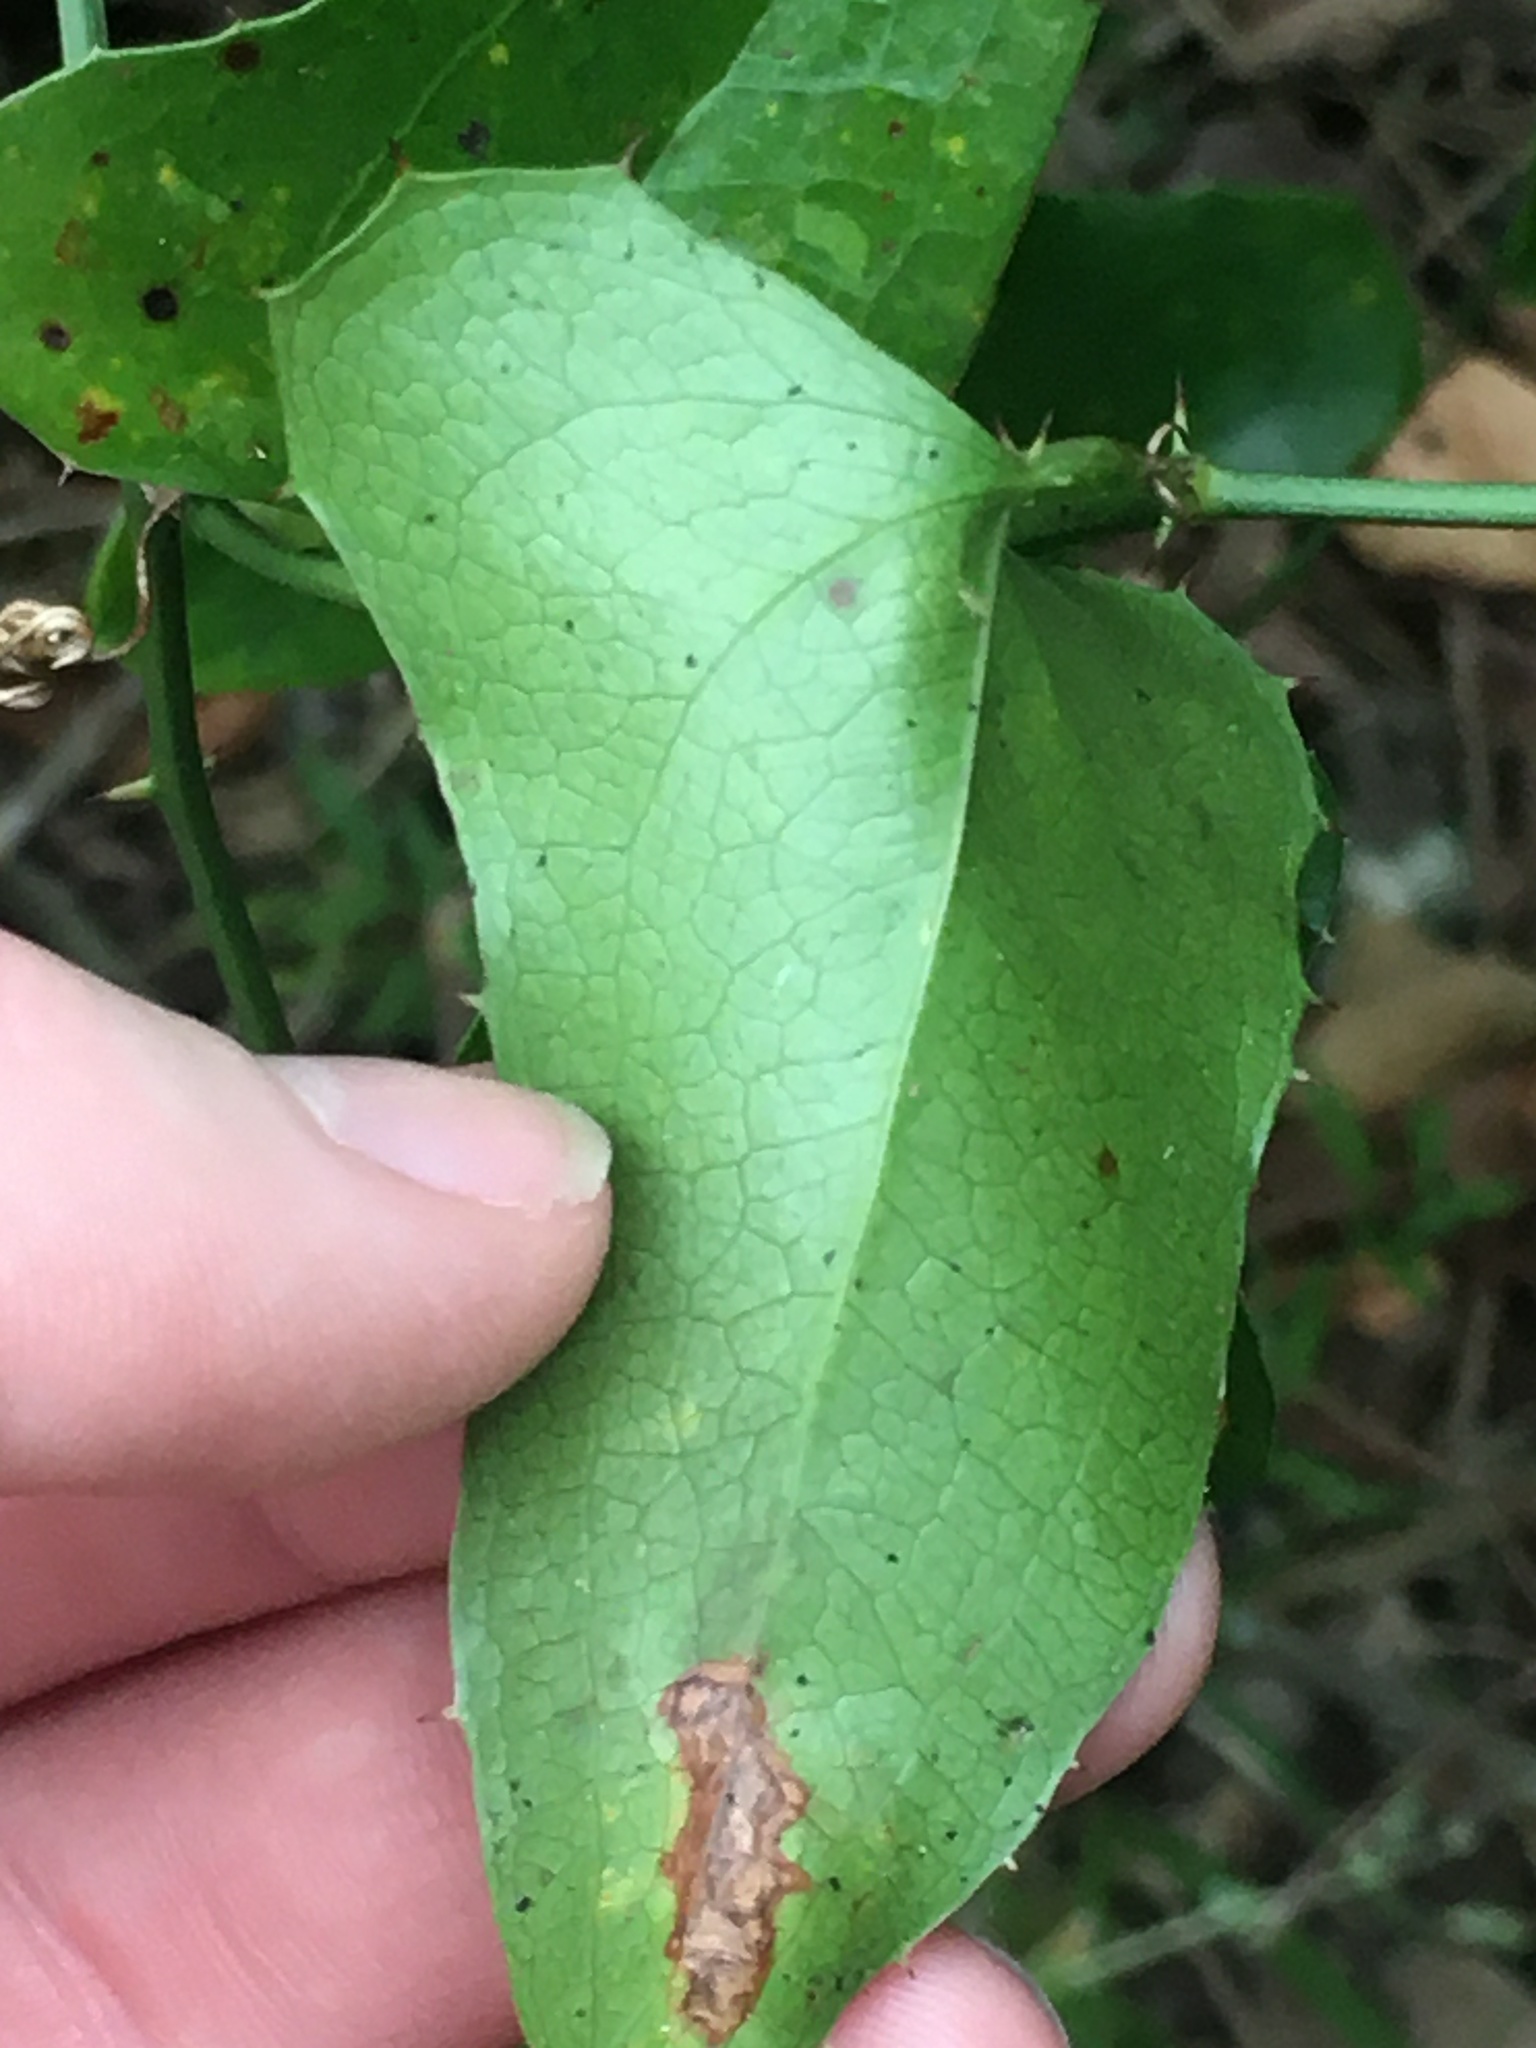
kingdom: Plantae
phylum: Tracheophyta
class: Liliopsida
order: Liliales
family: Smilacaceae
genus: Smilax
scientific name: Smilax bona-nox
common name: Catbrier
